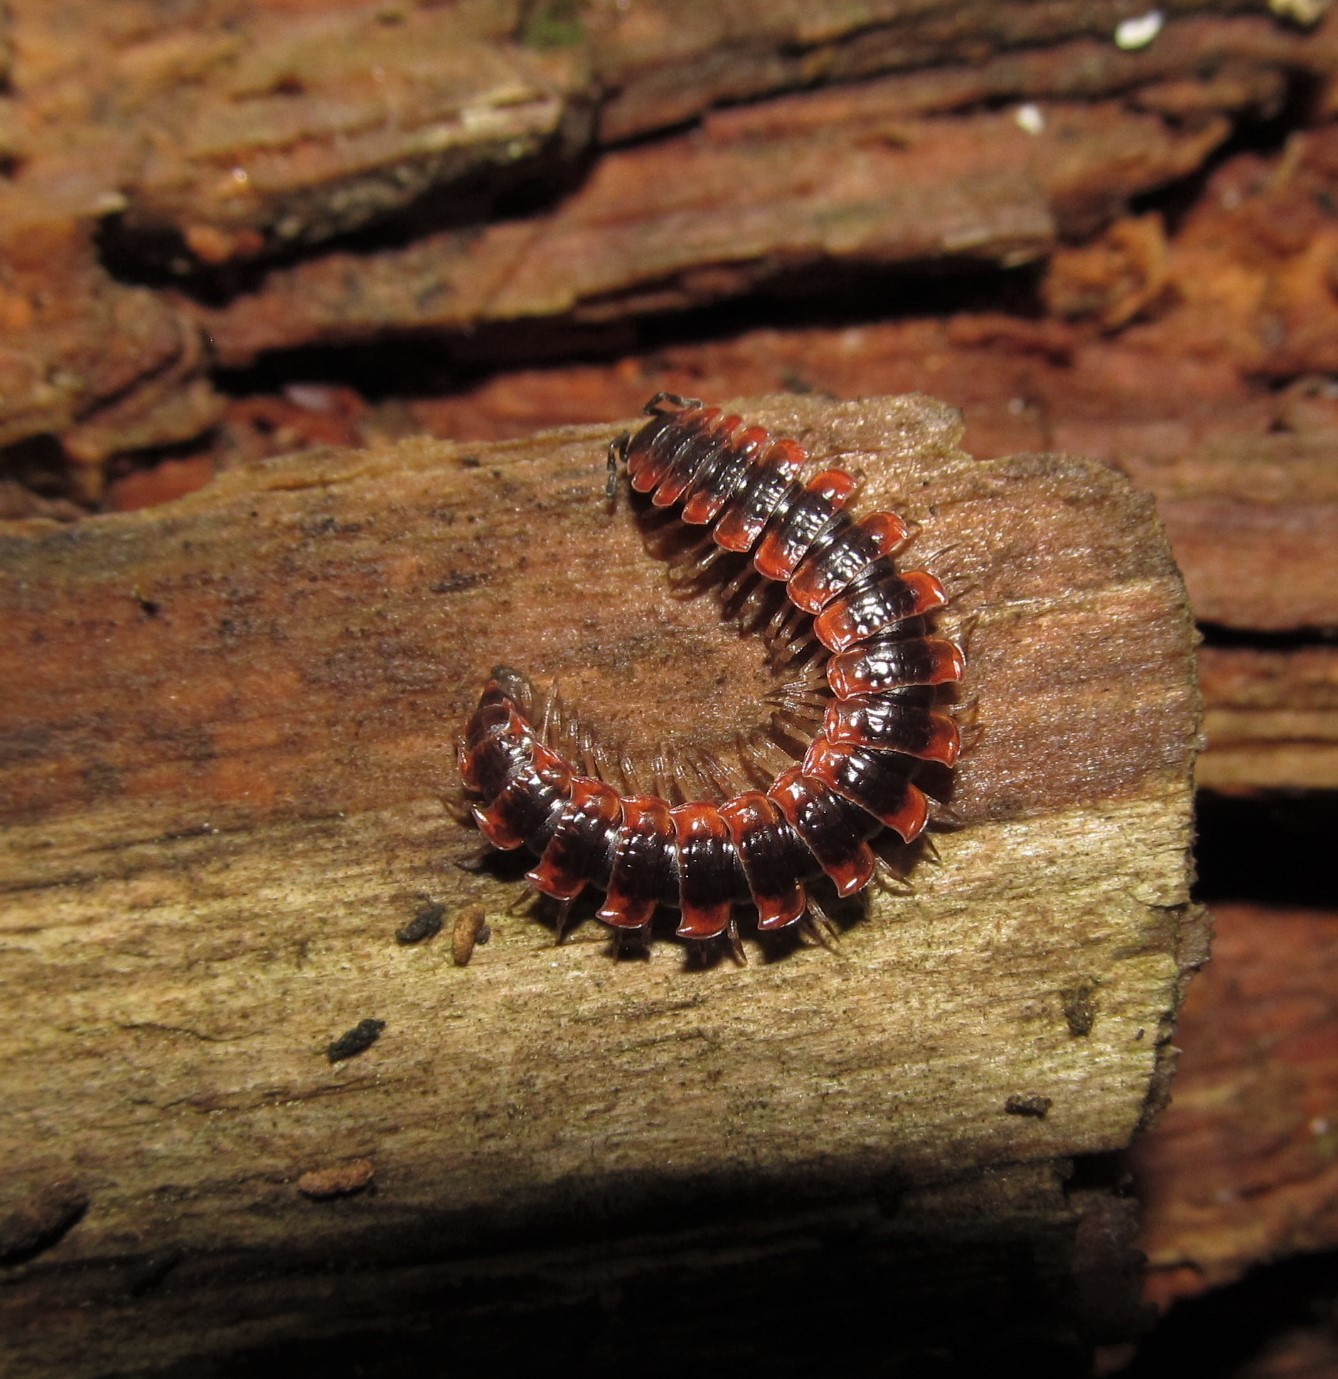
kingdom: Animalia
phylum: Arthropoda
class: Diplopoda
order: Polydesmida
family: Polydesmidae
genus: Pseudopolydesmus
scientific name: Pseudopolydesmus canadensis
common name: Canadian flat-back millipede
